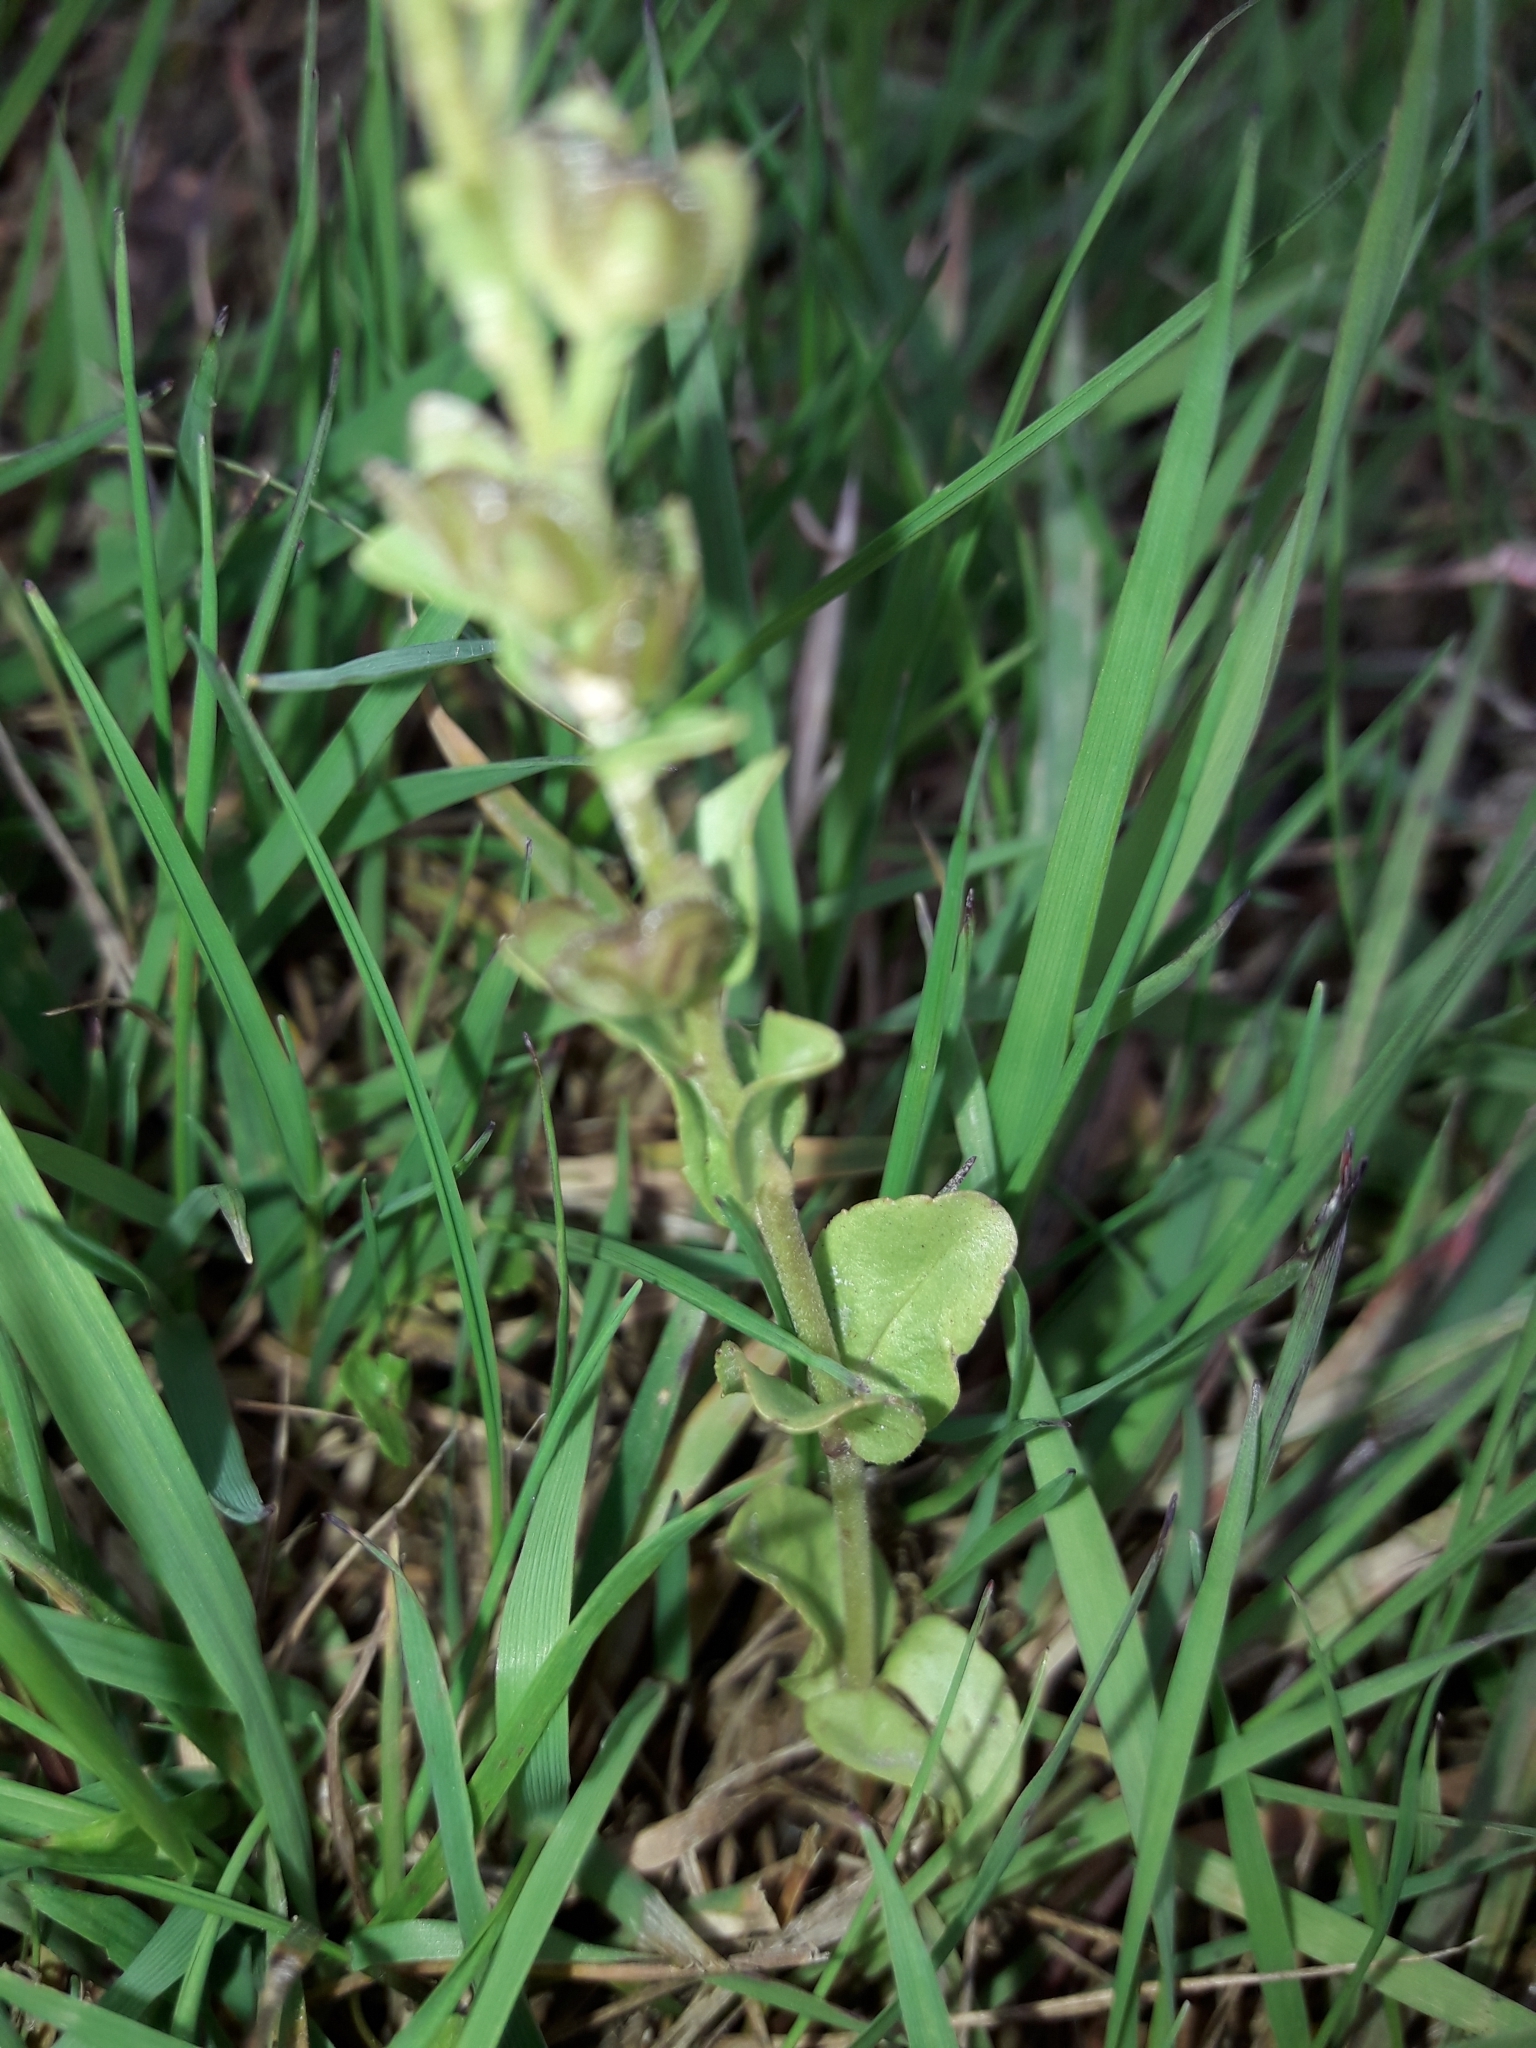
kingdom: Plantae
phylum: Tracheophyta
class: Magnoliopsida
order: Lamiales
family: Plantaginaceae
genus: Veronica
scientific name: Veronica serpyllifolia
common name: Thyme-leaved speedwell
